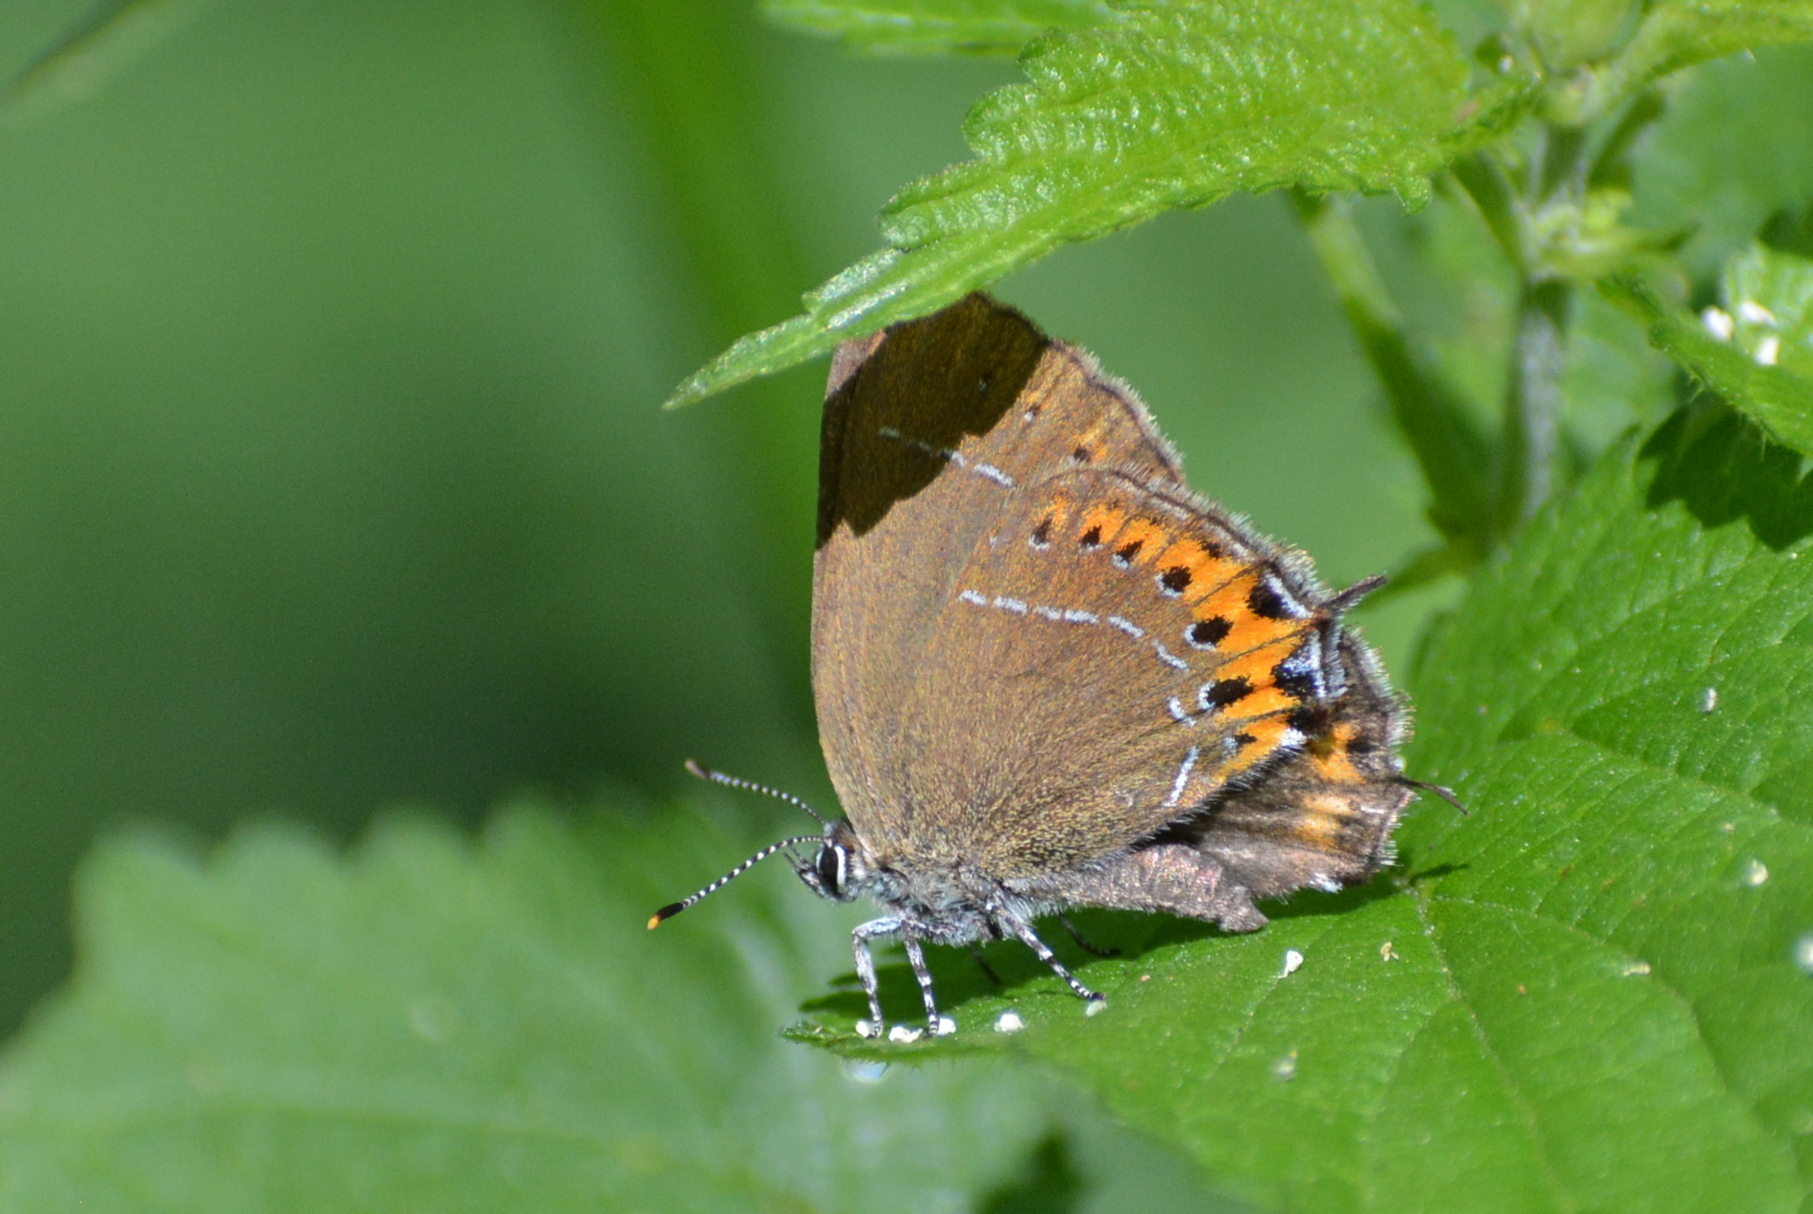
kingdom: Animalia
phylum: Arthropoda
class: Insecta
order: Lepidoptera
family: Lycaenidae
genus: Fixsenia
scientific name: Fixsenia pruni
